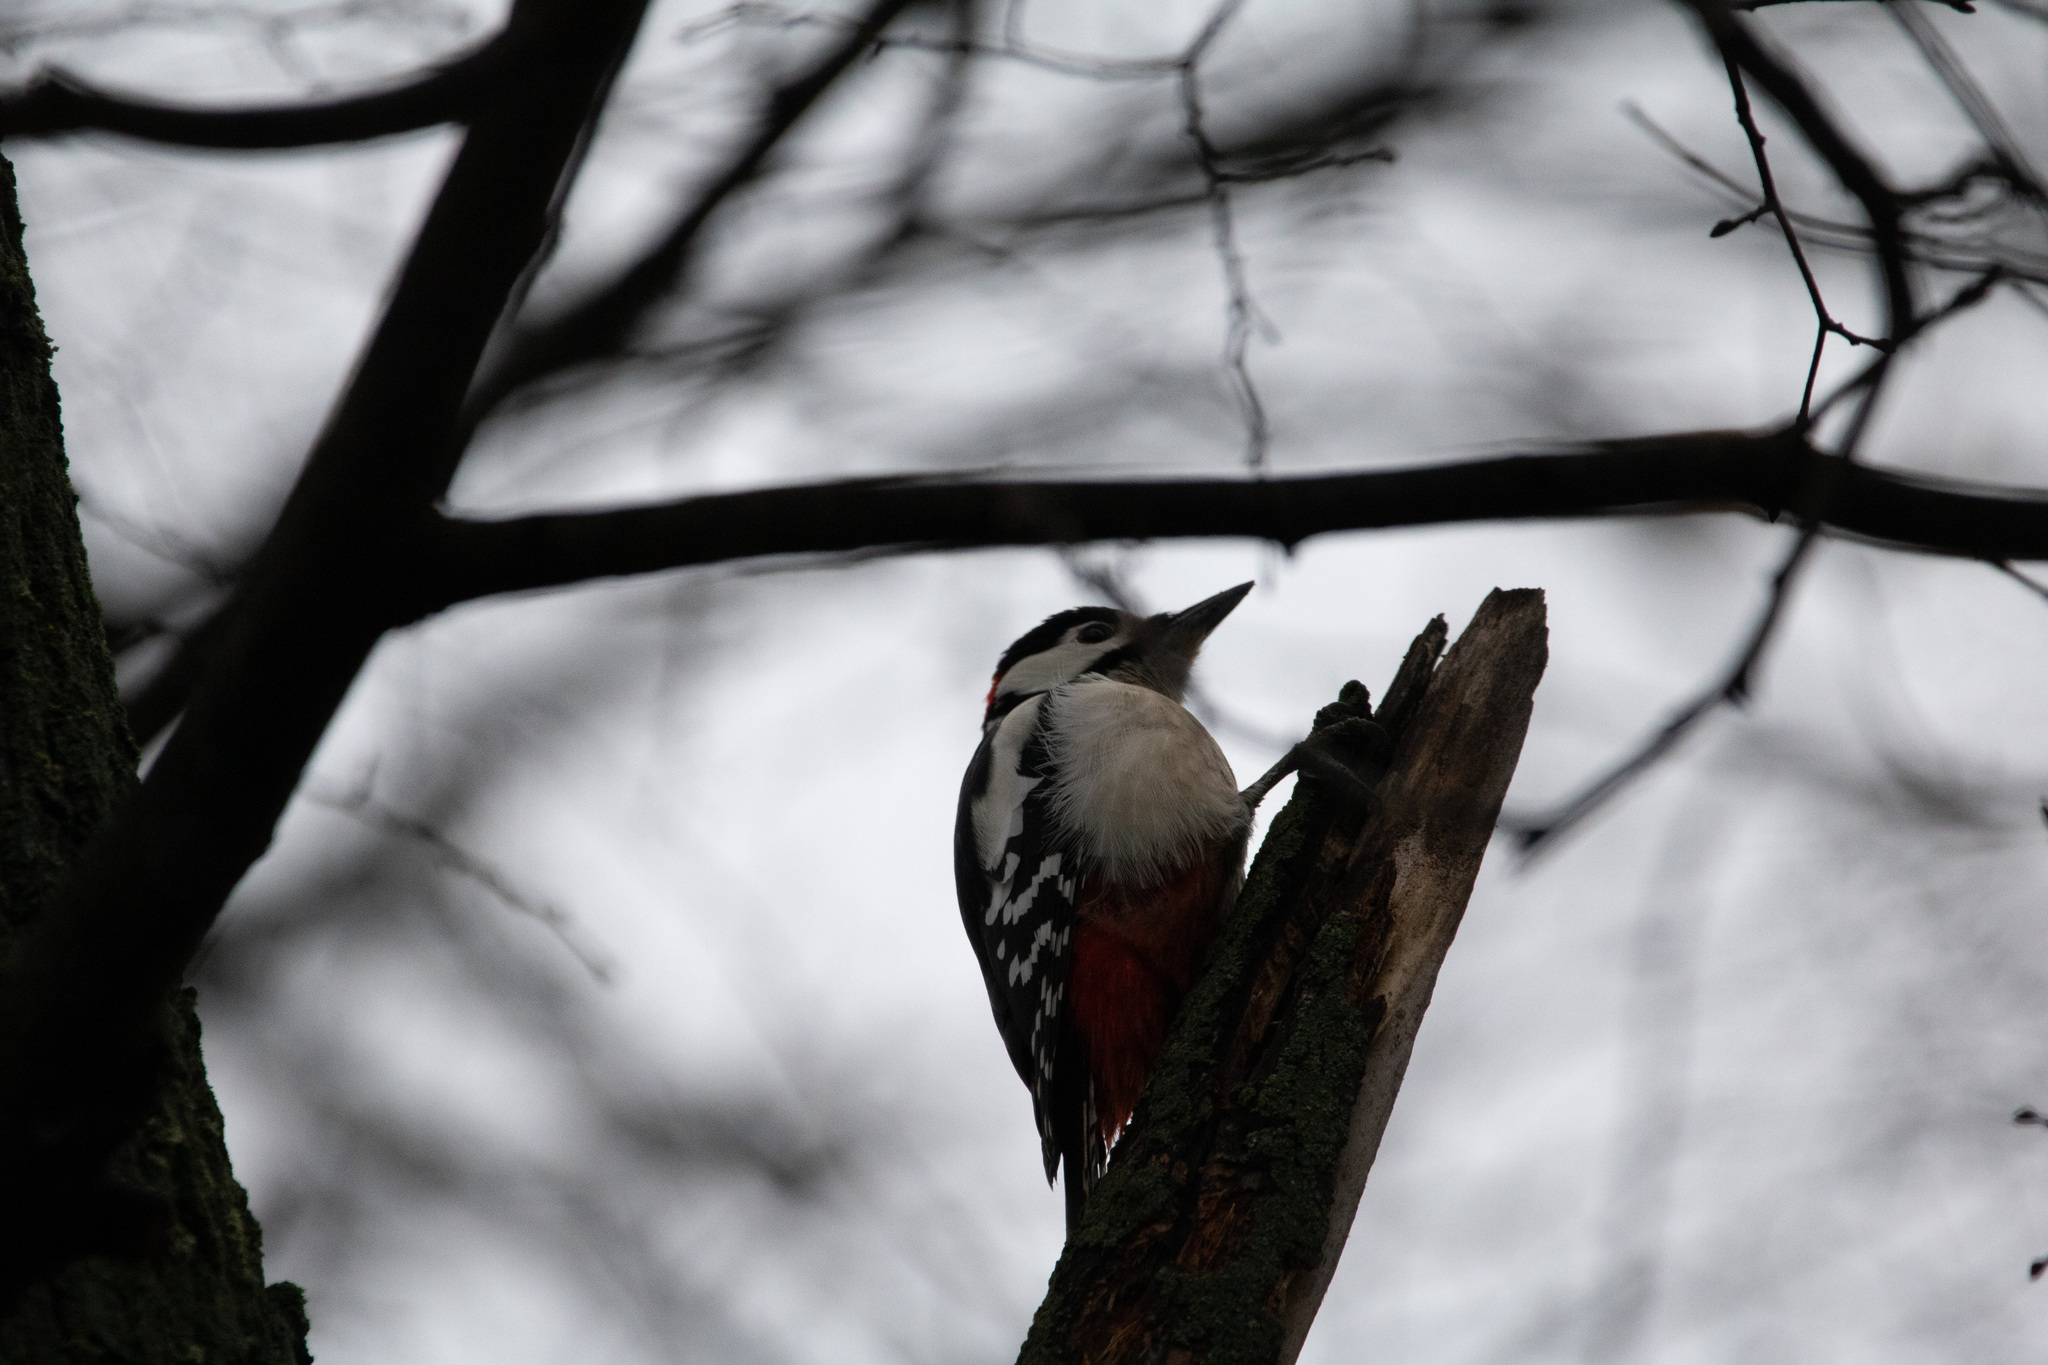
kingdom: Animalia
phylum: Chordata
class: Aves
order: Piciformes
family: Picidae
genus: Dendrocopos
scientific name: Dendrocopos major
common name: Great spotted woodpecker
